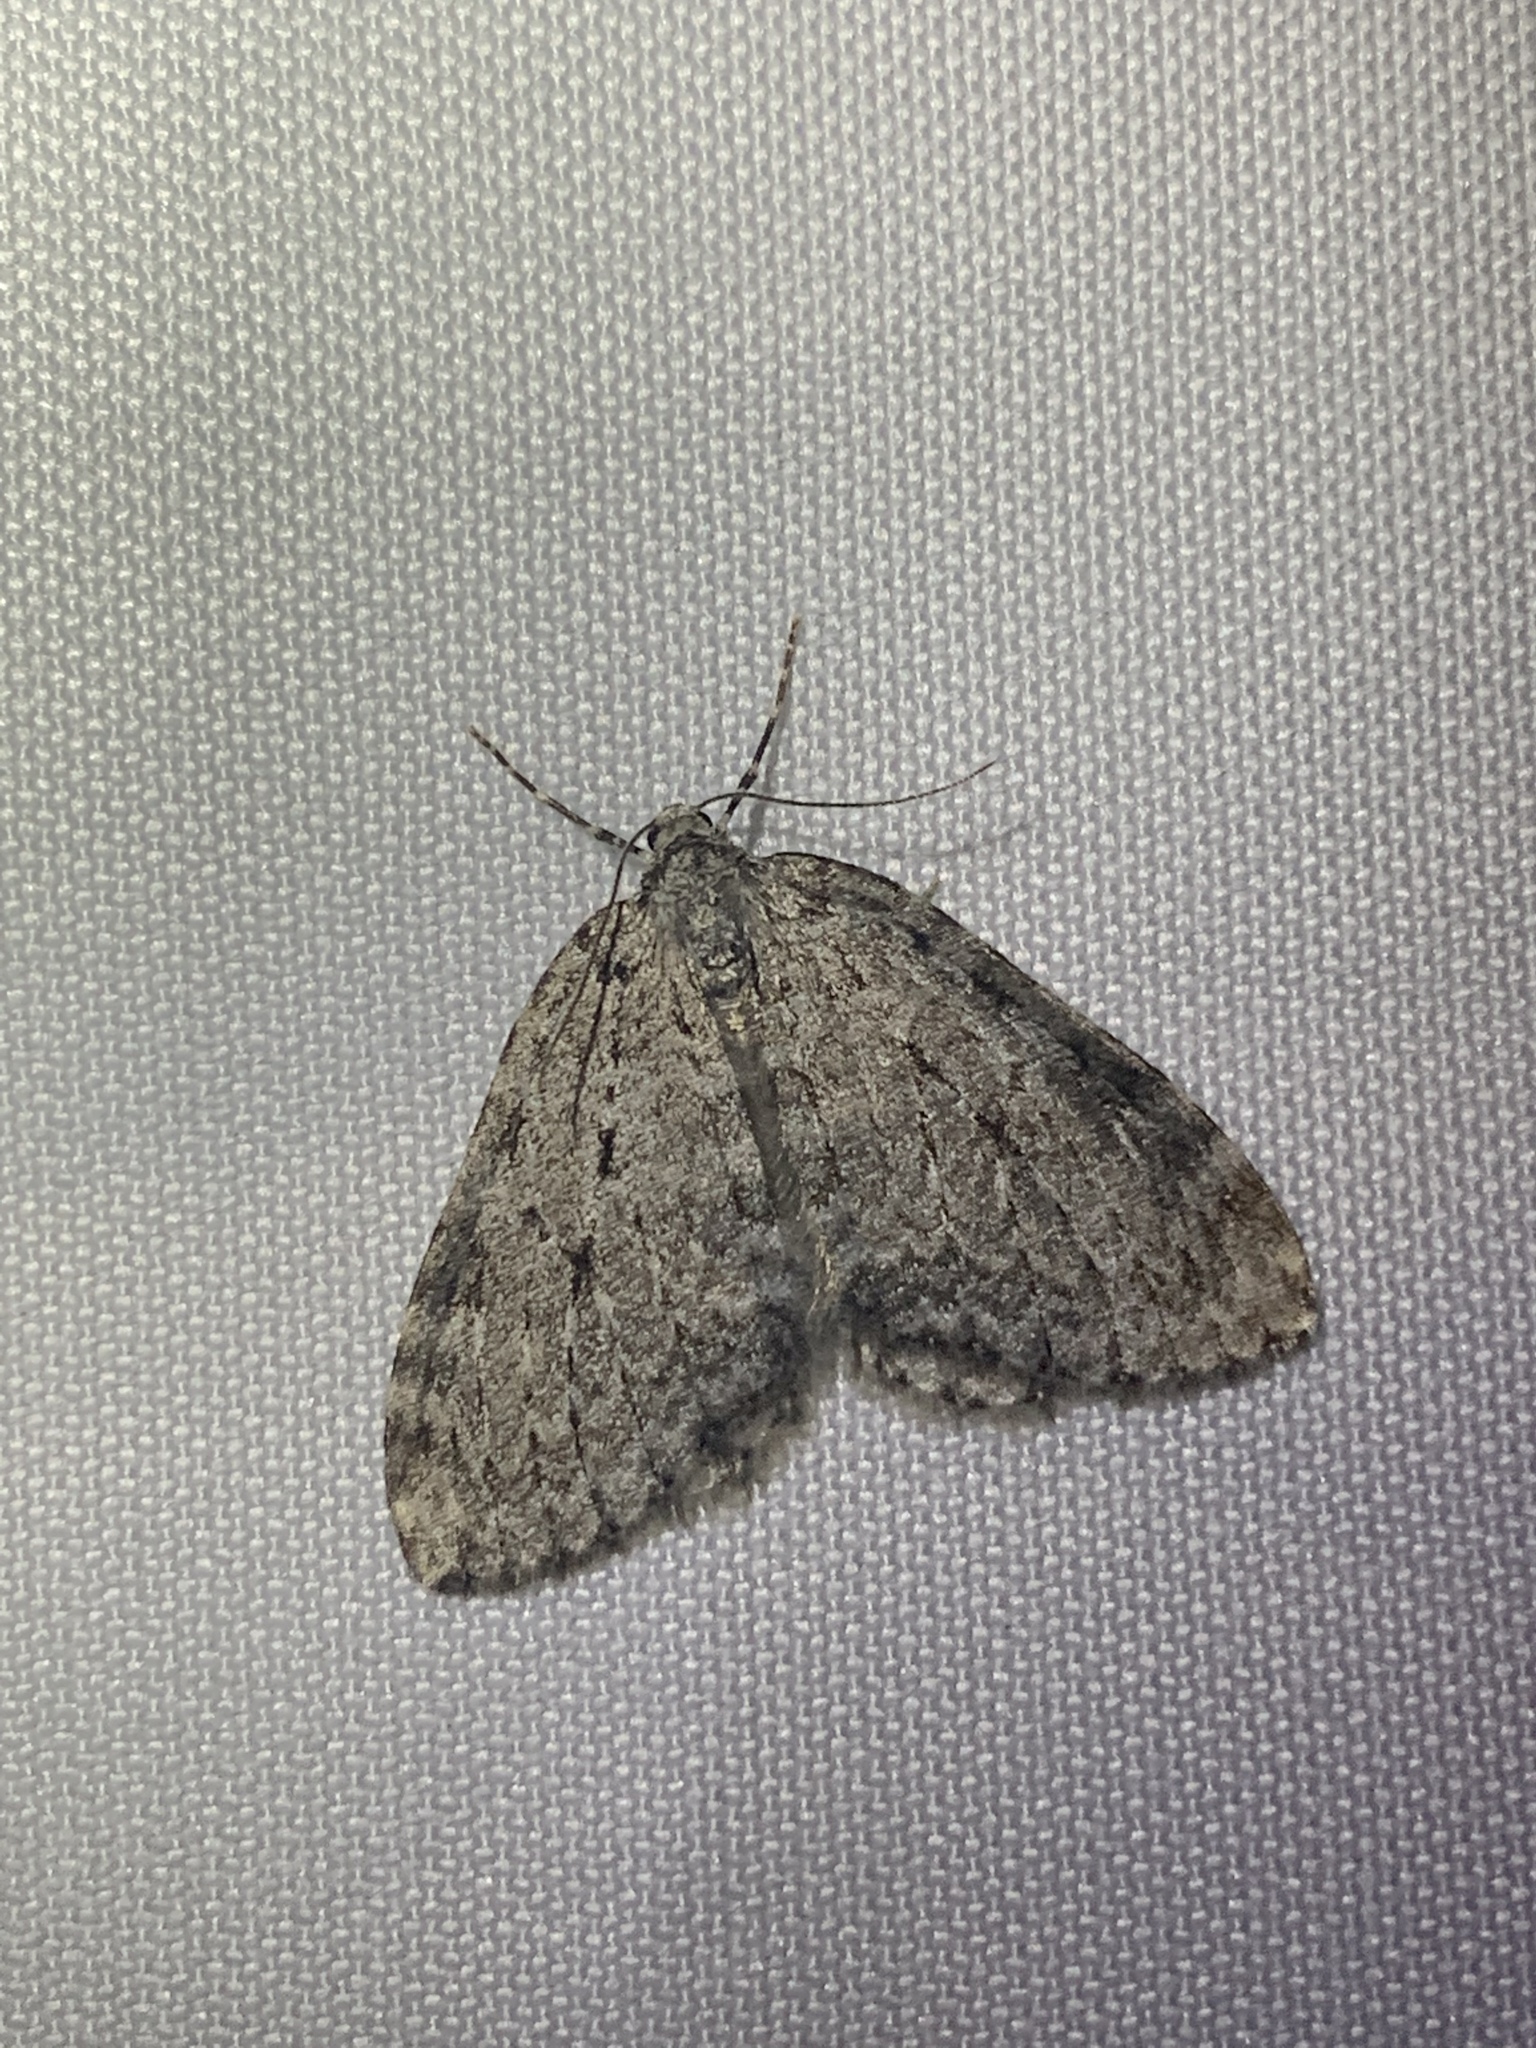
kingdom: Animalia
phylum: Arthropoda
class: Insecta
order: Lepidoptera
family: Geometridae
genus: Epirrita
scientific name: Epirrita autumnata
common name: Autumnal moth
